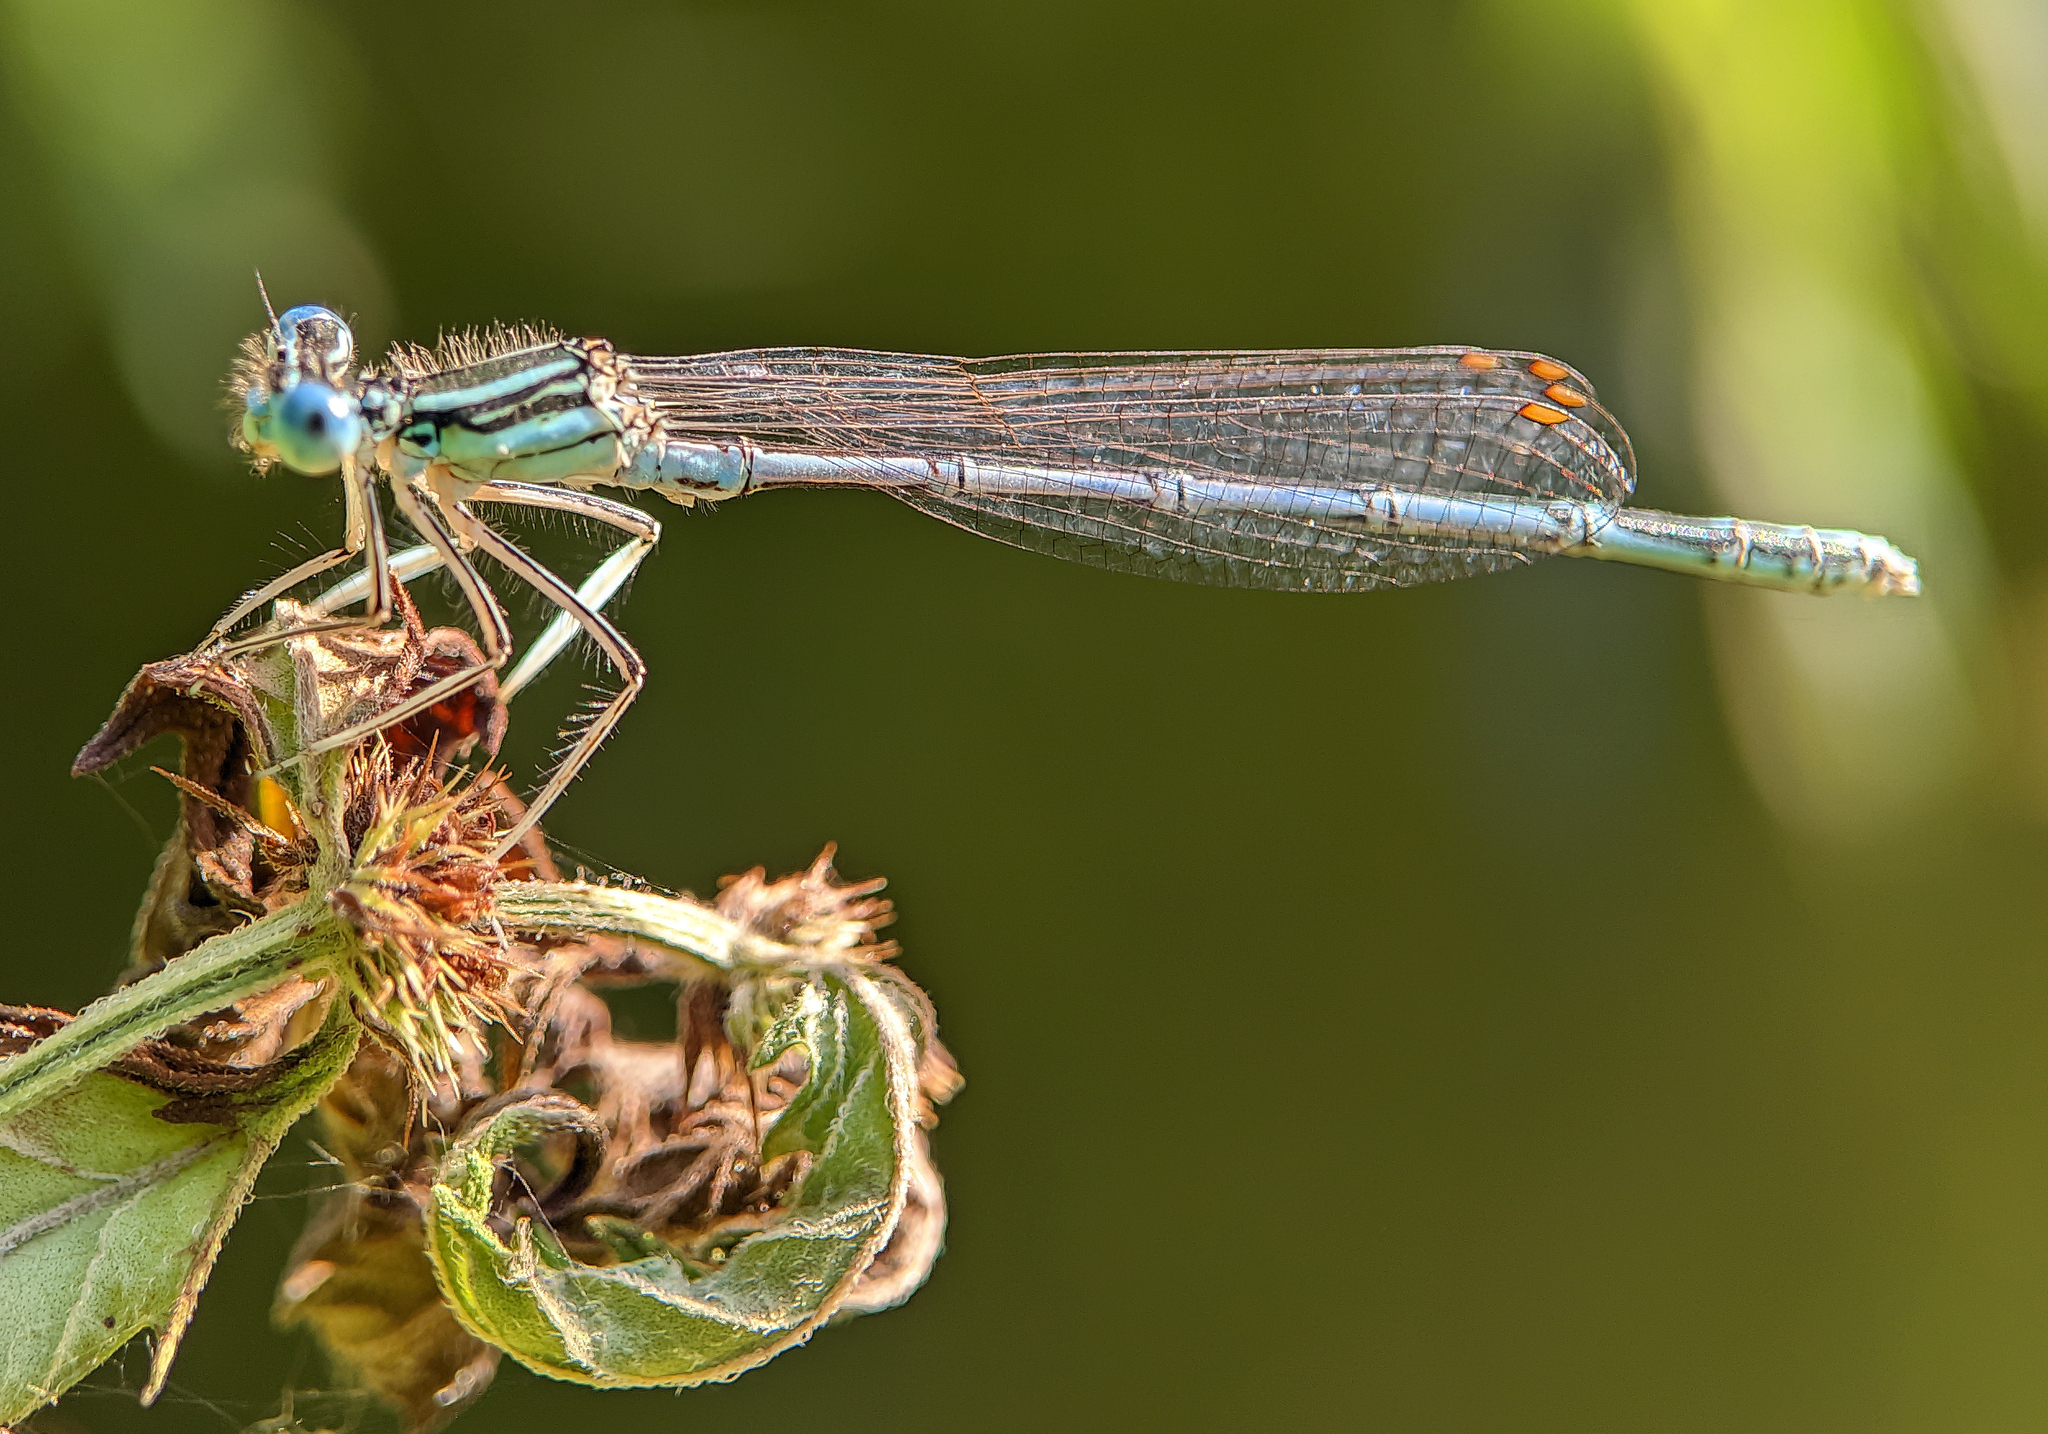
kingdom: Animalia
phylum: Arthropoda
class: Insecta
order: Odonata
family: Platycnemididae
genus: Platycnemis
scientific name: Platycnemis pennipes
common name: White-legged damselfly
